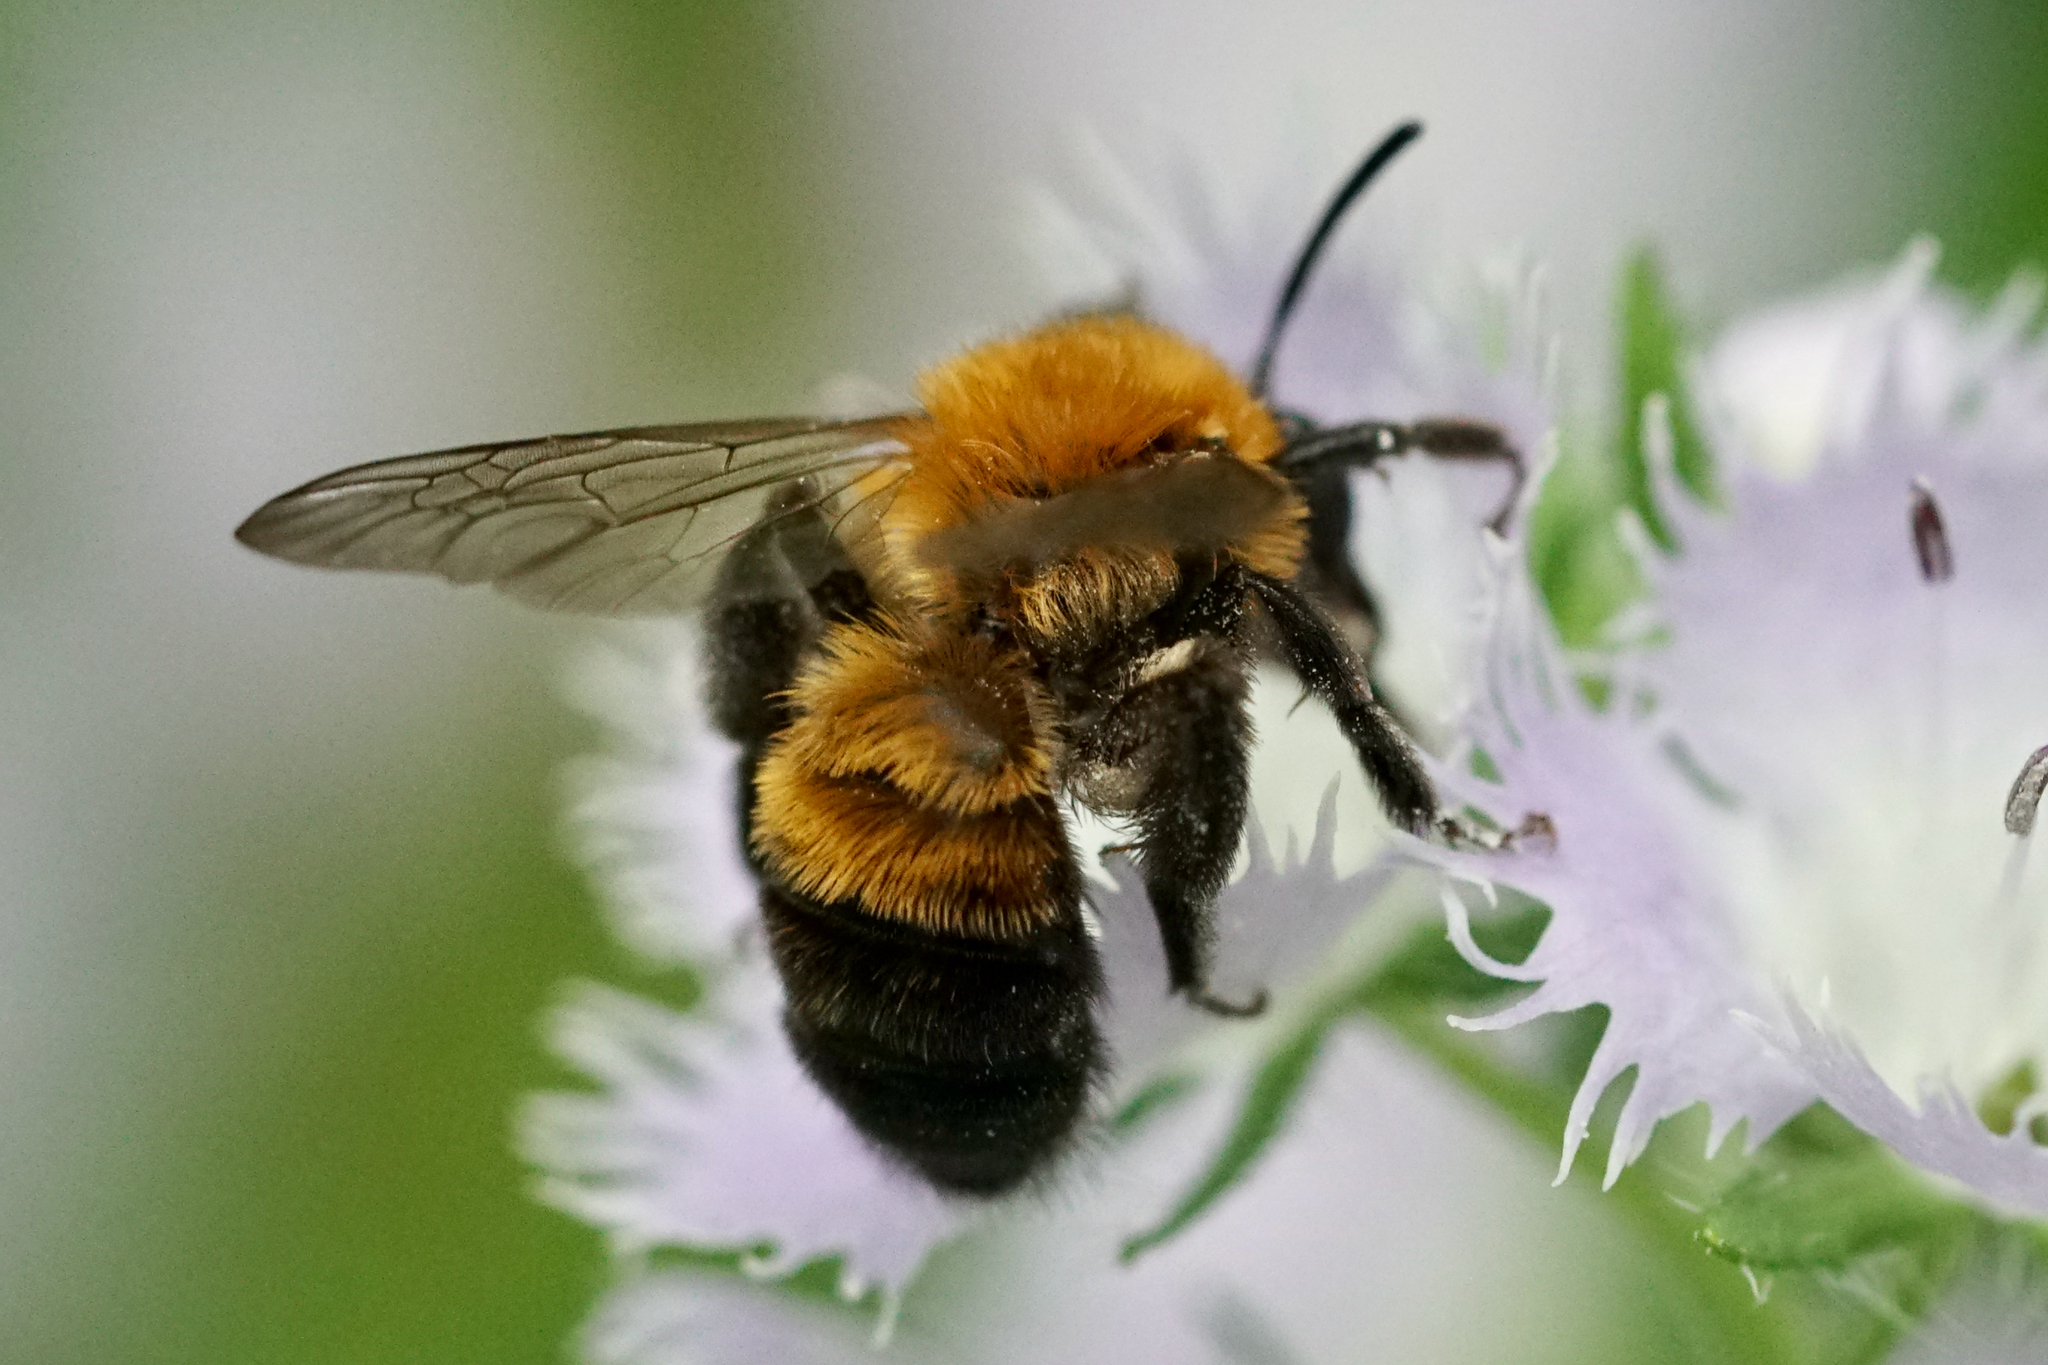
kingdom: Animalia
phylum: Arthropoda
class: Insecta
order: Hymenoptera
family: Andrenidae
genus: Andrena
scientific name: Andrena milwaukeensis
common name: Milwaukee mining bee
